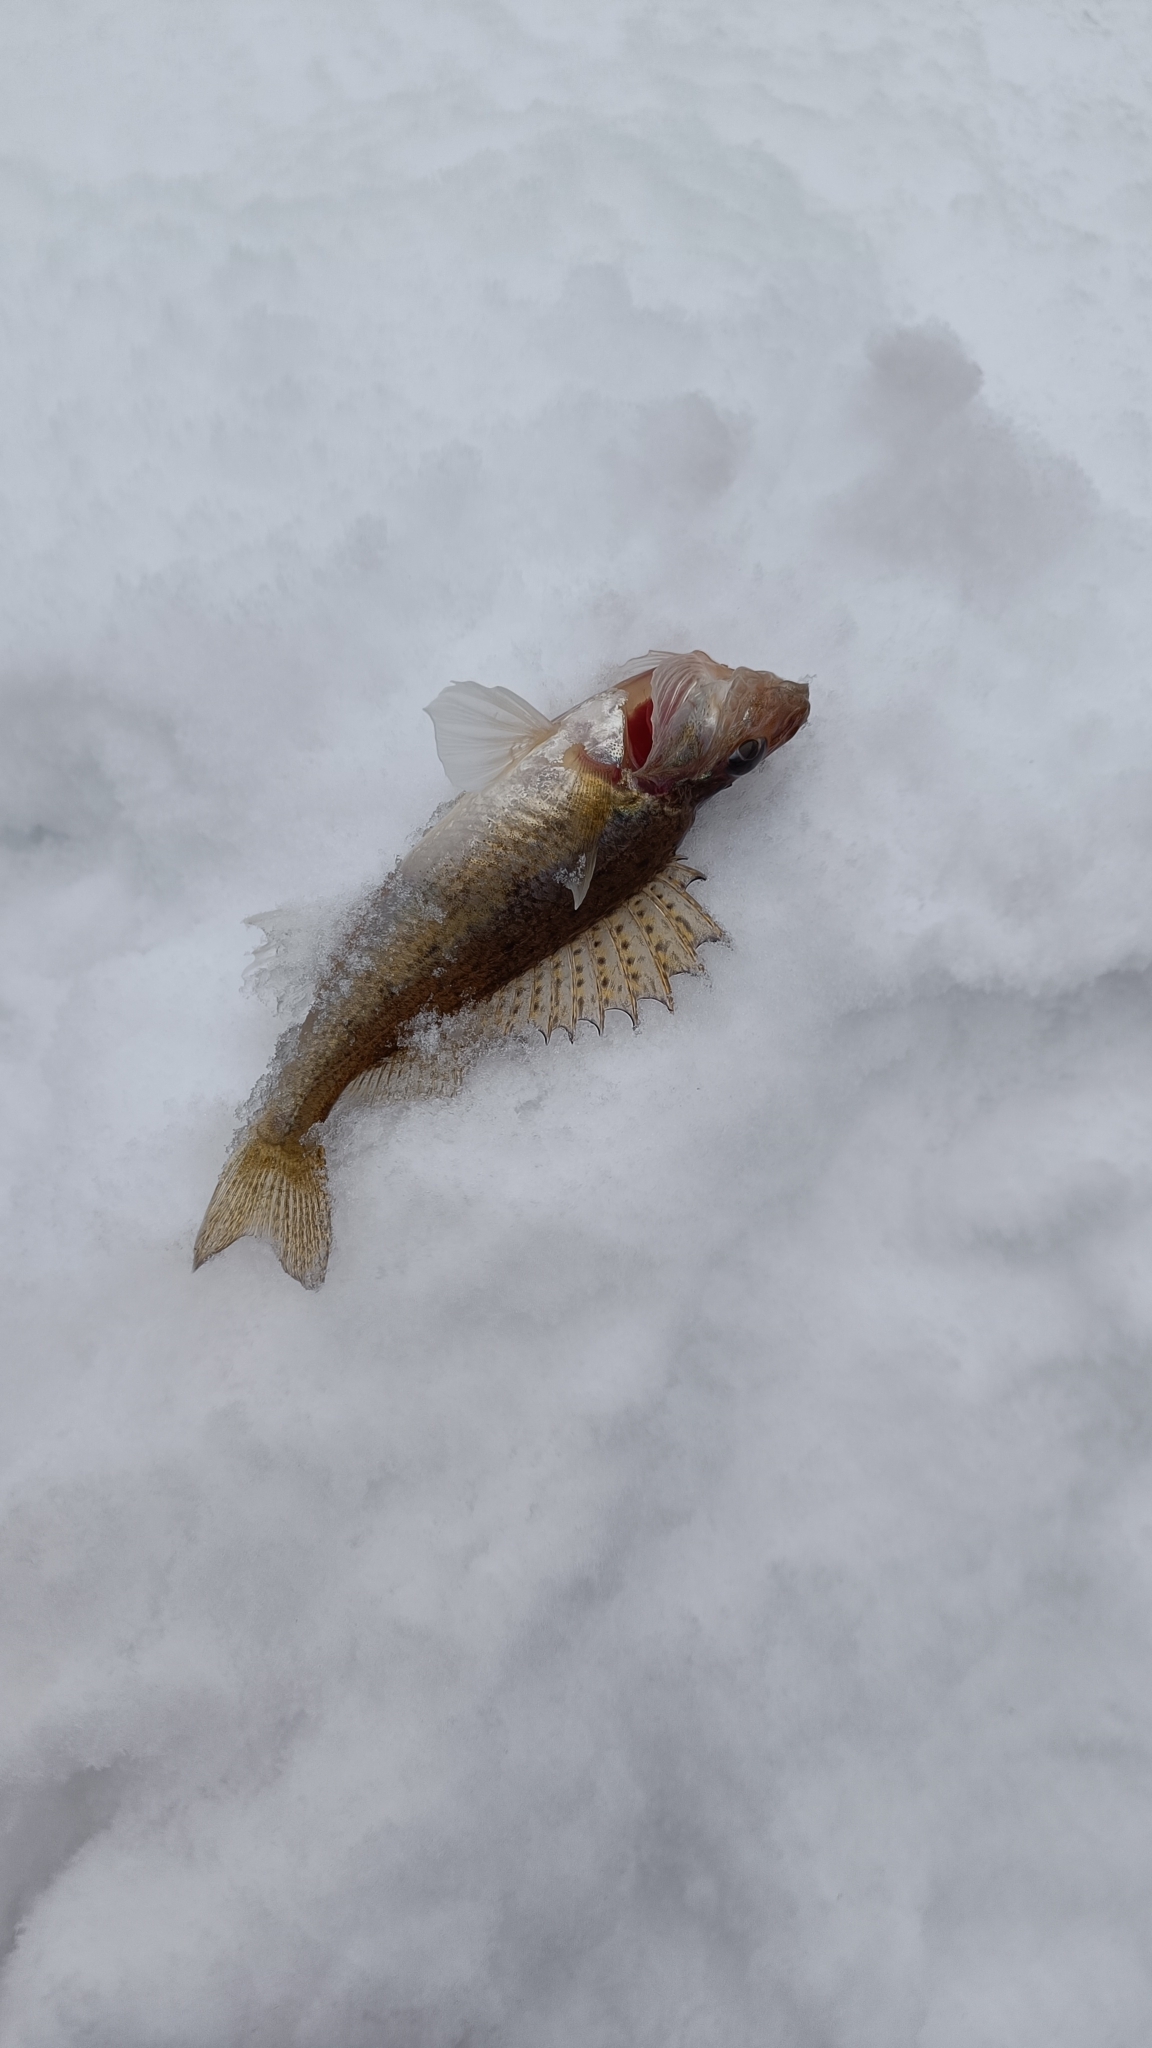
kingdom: Animalia
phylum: Chordata
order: Perciformes
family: Percidae
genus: Gymnocephalus
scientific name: Gymnocephalus cernua
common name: Ruffe
